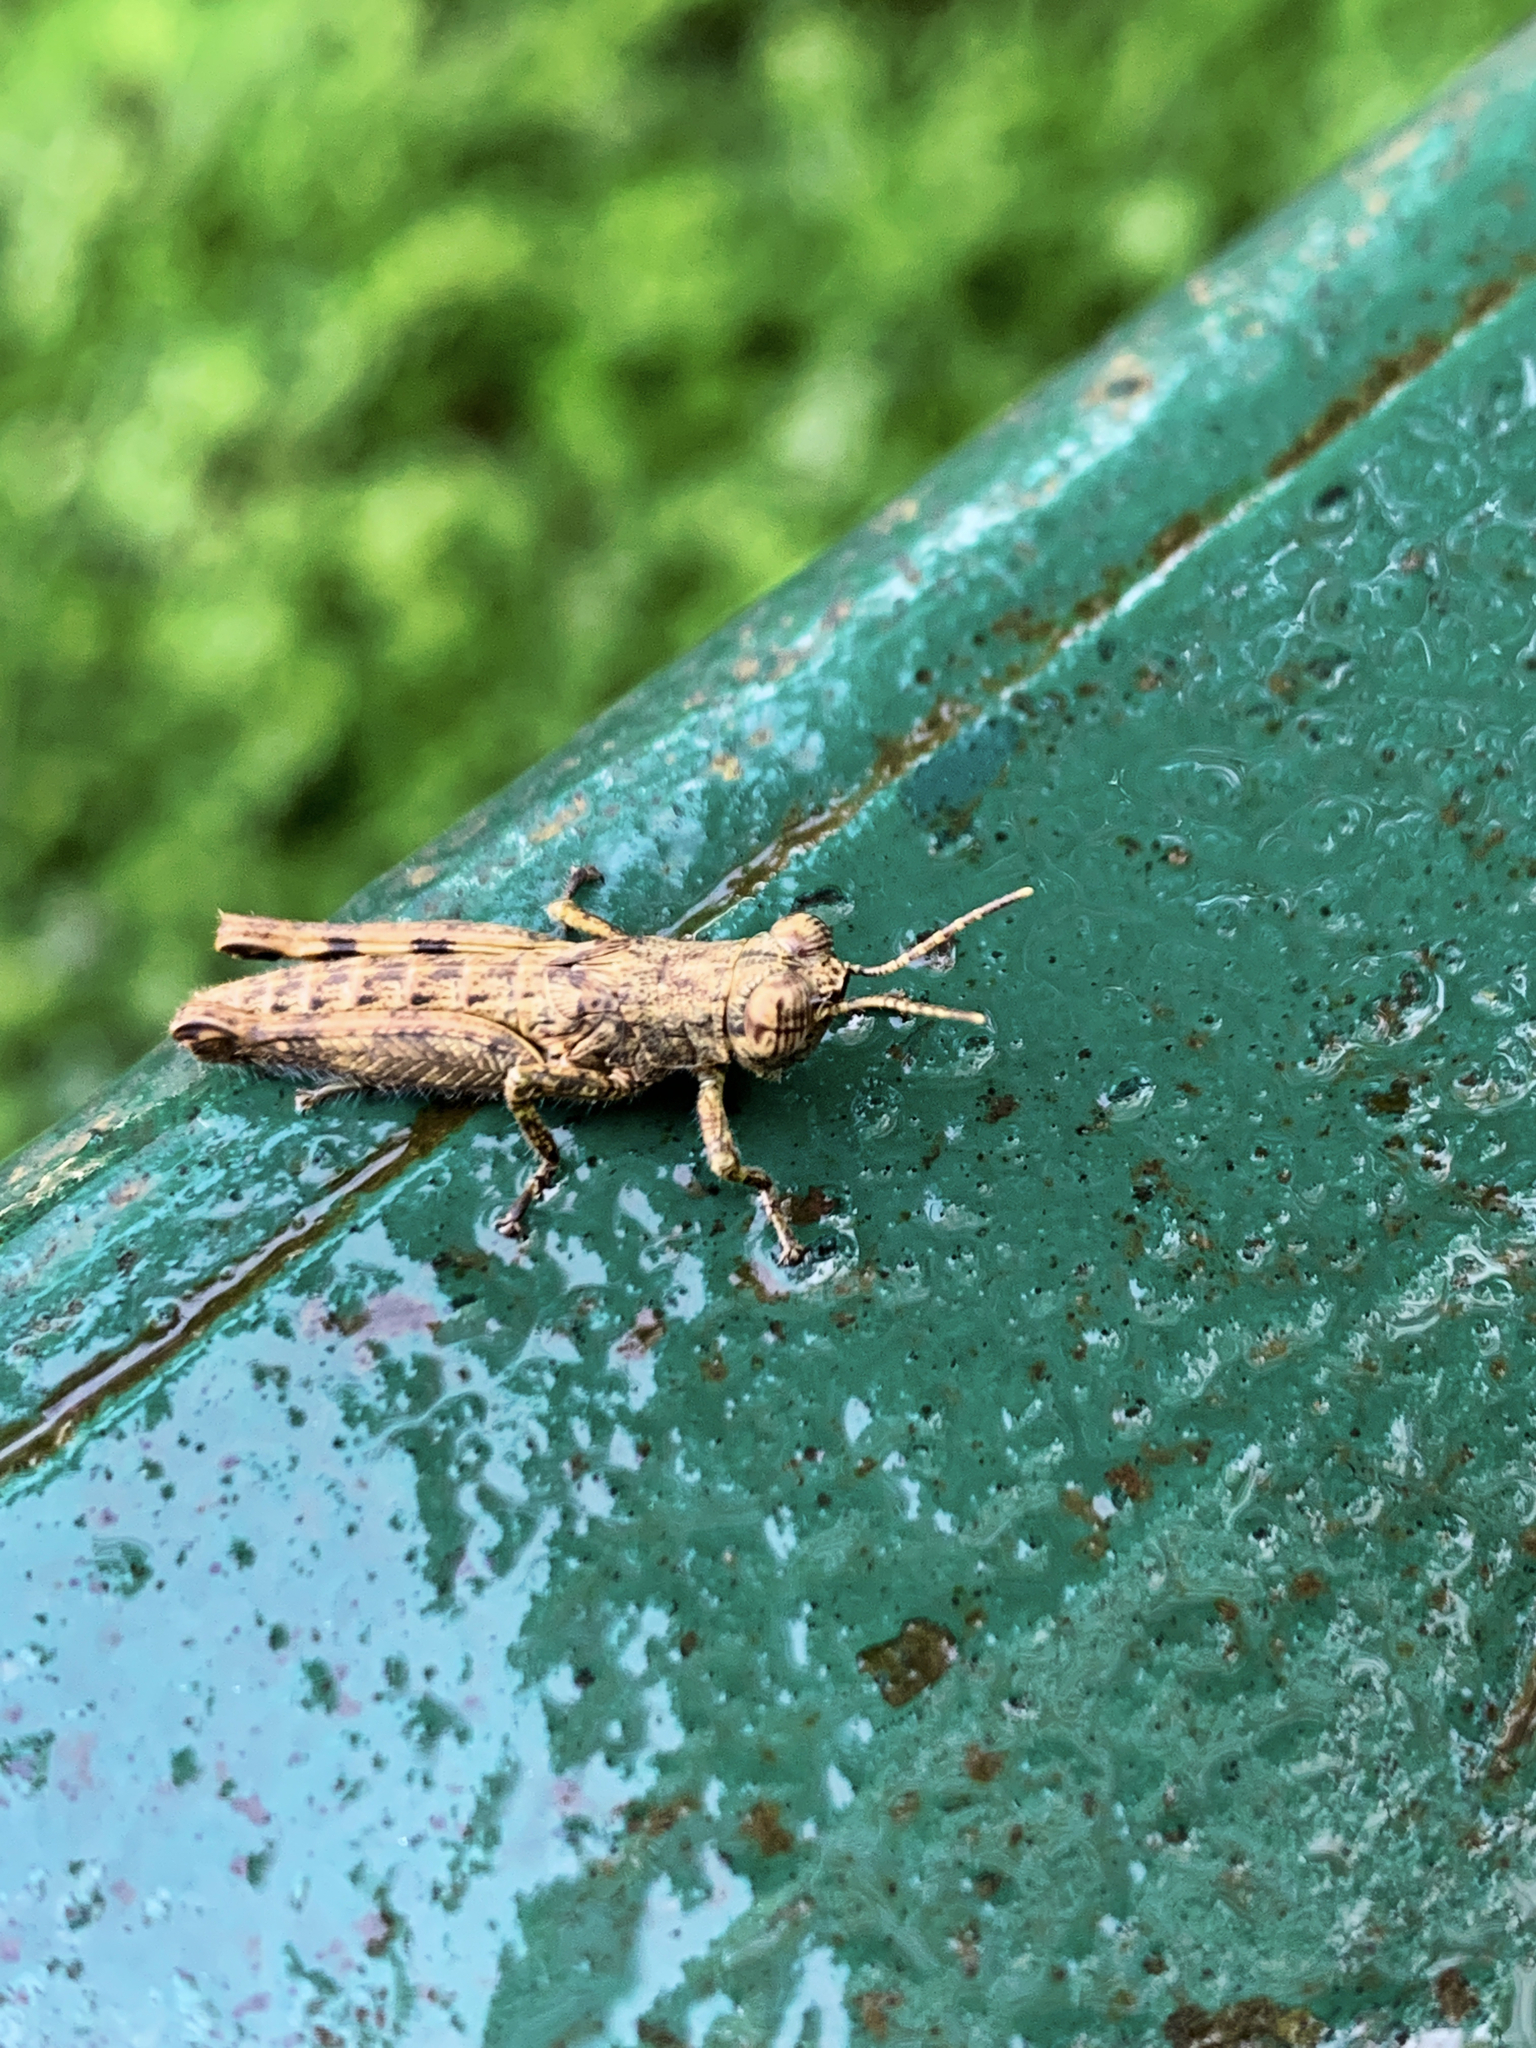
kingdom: Animalia
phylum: Arthropoda
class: Insecta
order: Orthoptera
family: Acrididae
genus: Eucephalacris
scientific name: Eucephalacris borellii
